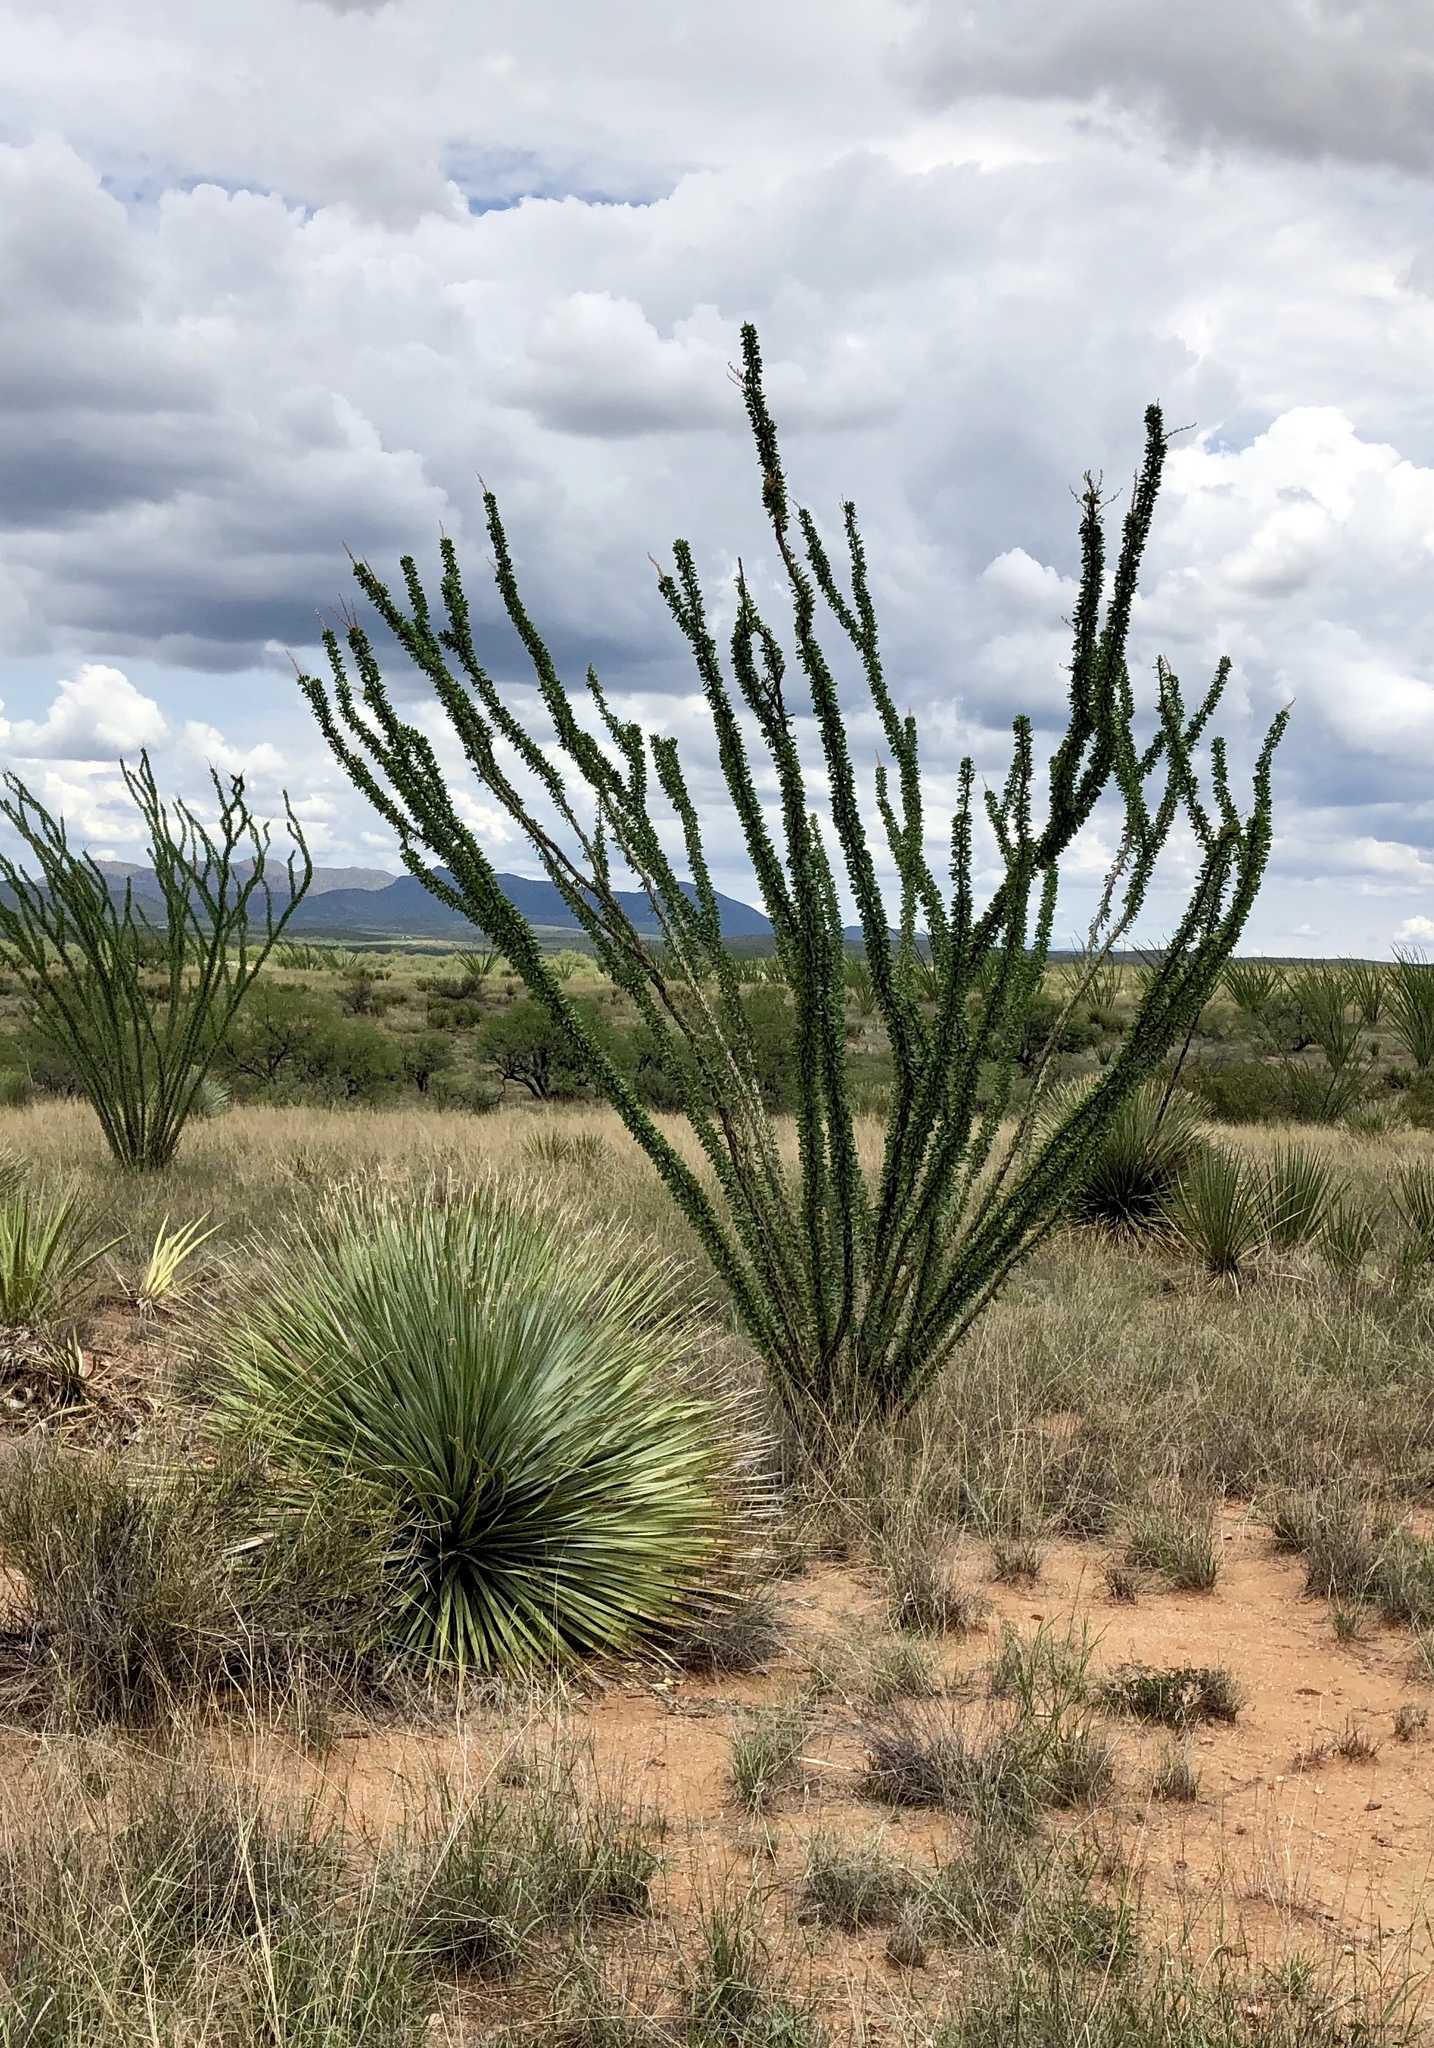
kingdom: Plantae
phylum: Tracheophyta
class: Magnoliopsida
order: Ericales
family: Fouquieriaceae
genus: Fouquieria
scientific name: Fouquieria splendens
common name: Vine-cactus
